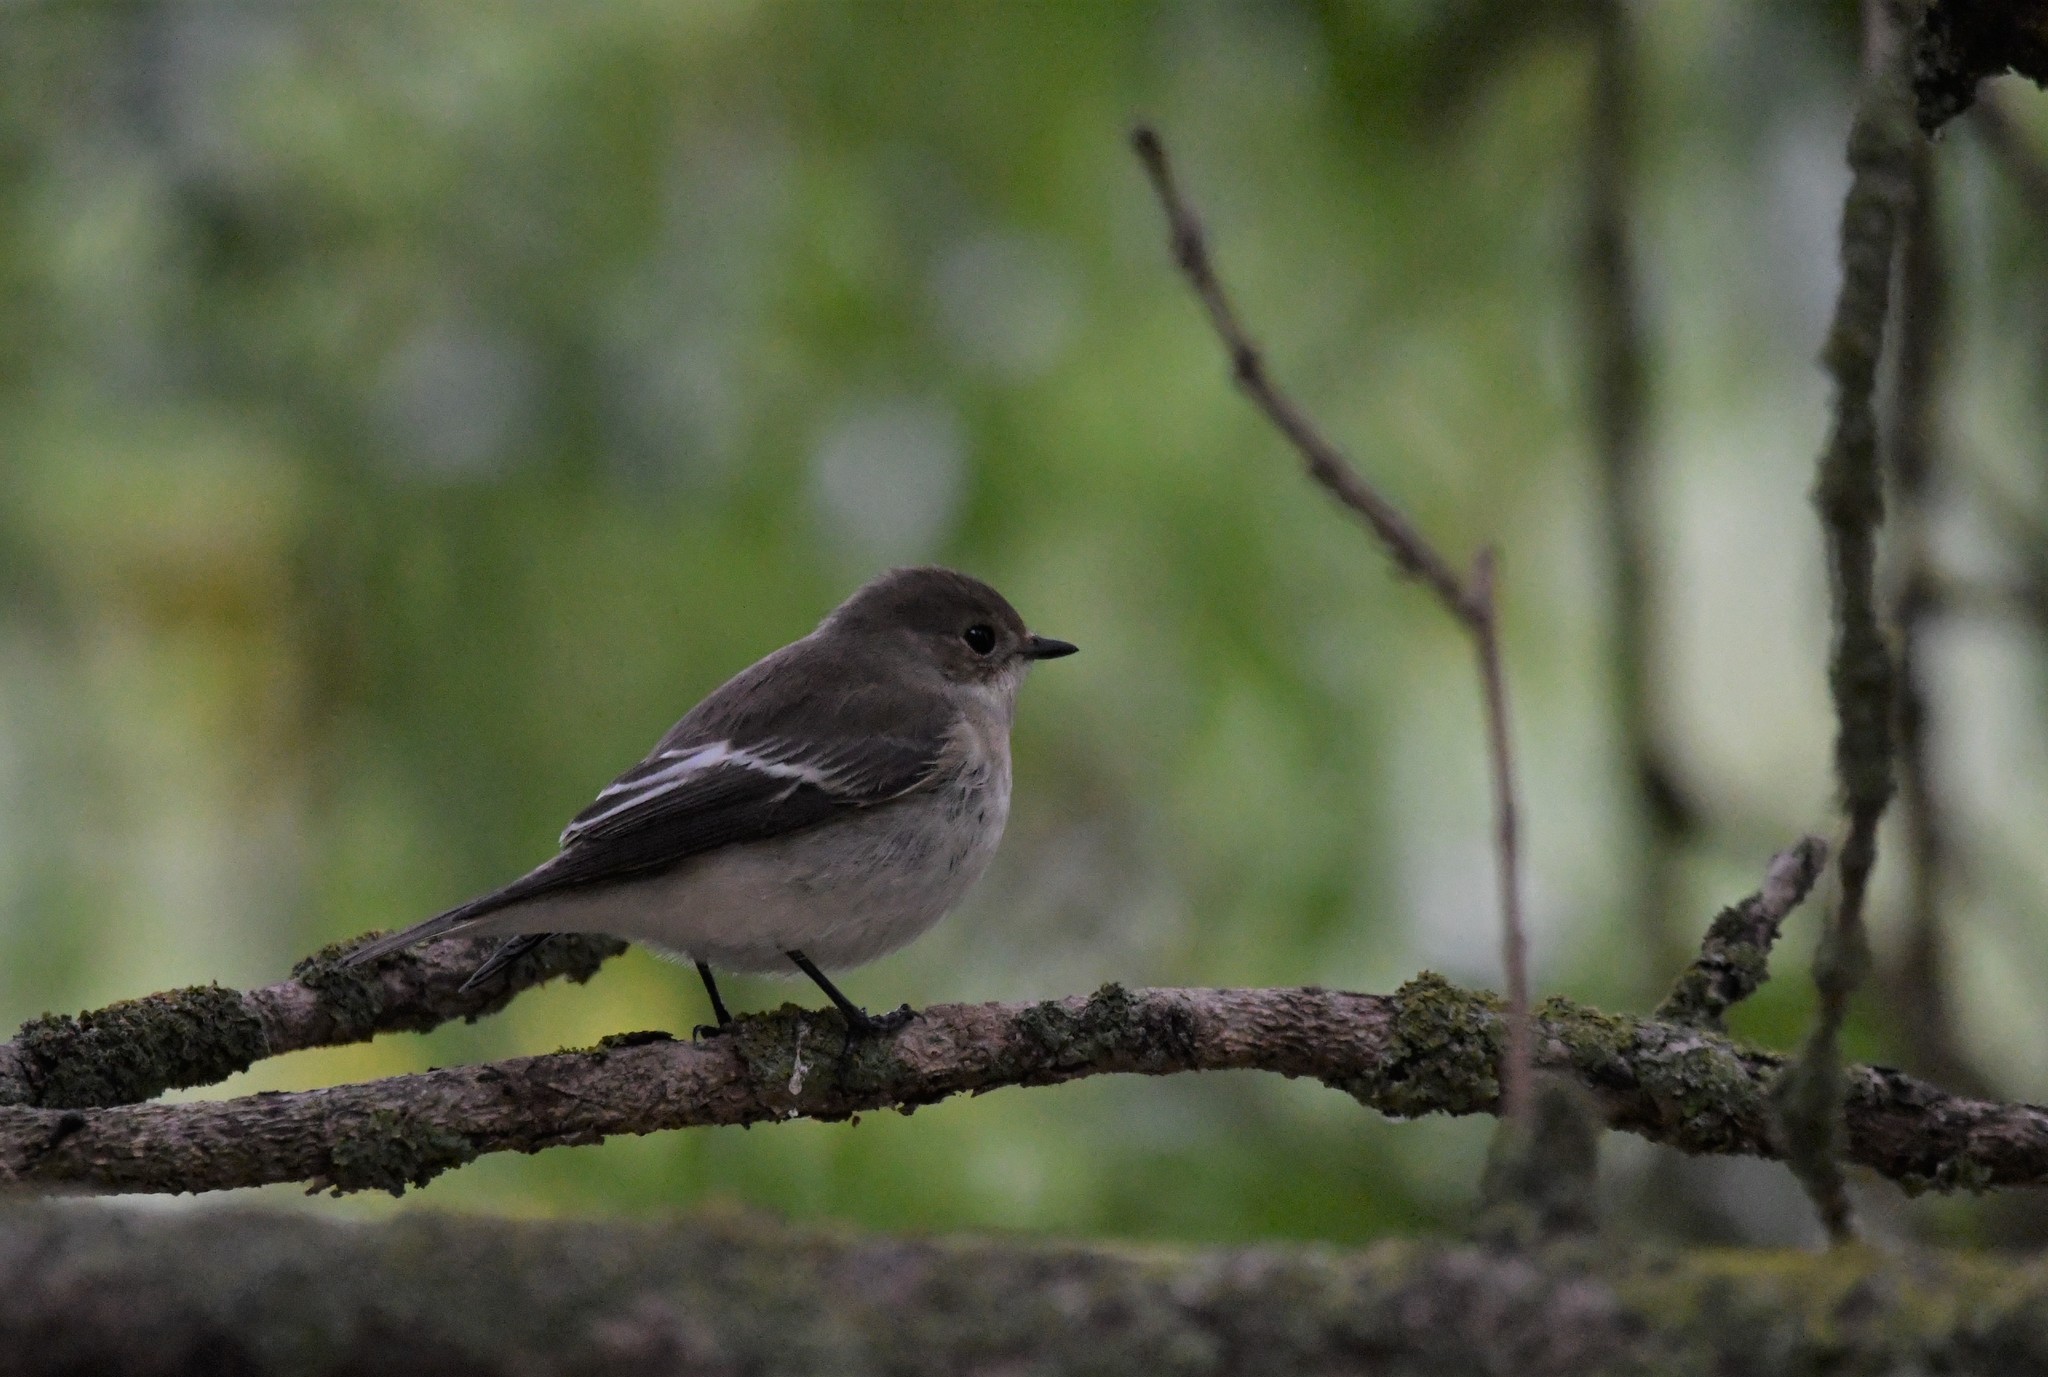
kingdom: Animalia
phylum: Chordata
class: Aves
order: Passeriformes
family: Muscicapidae
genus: Ficedula
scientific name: Ficedula hypoleuca
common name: European pied flycatcher
